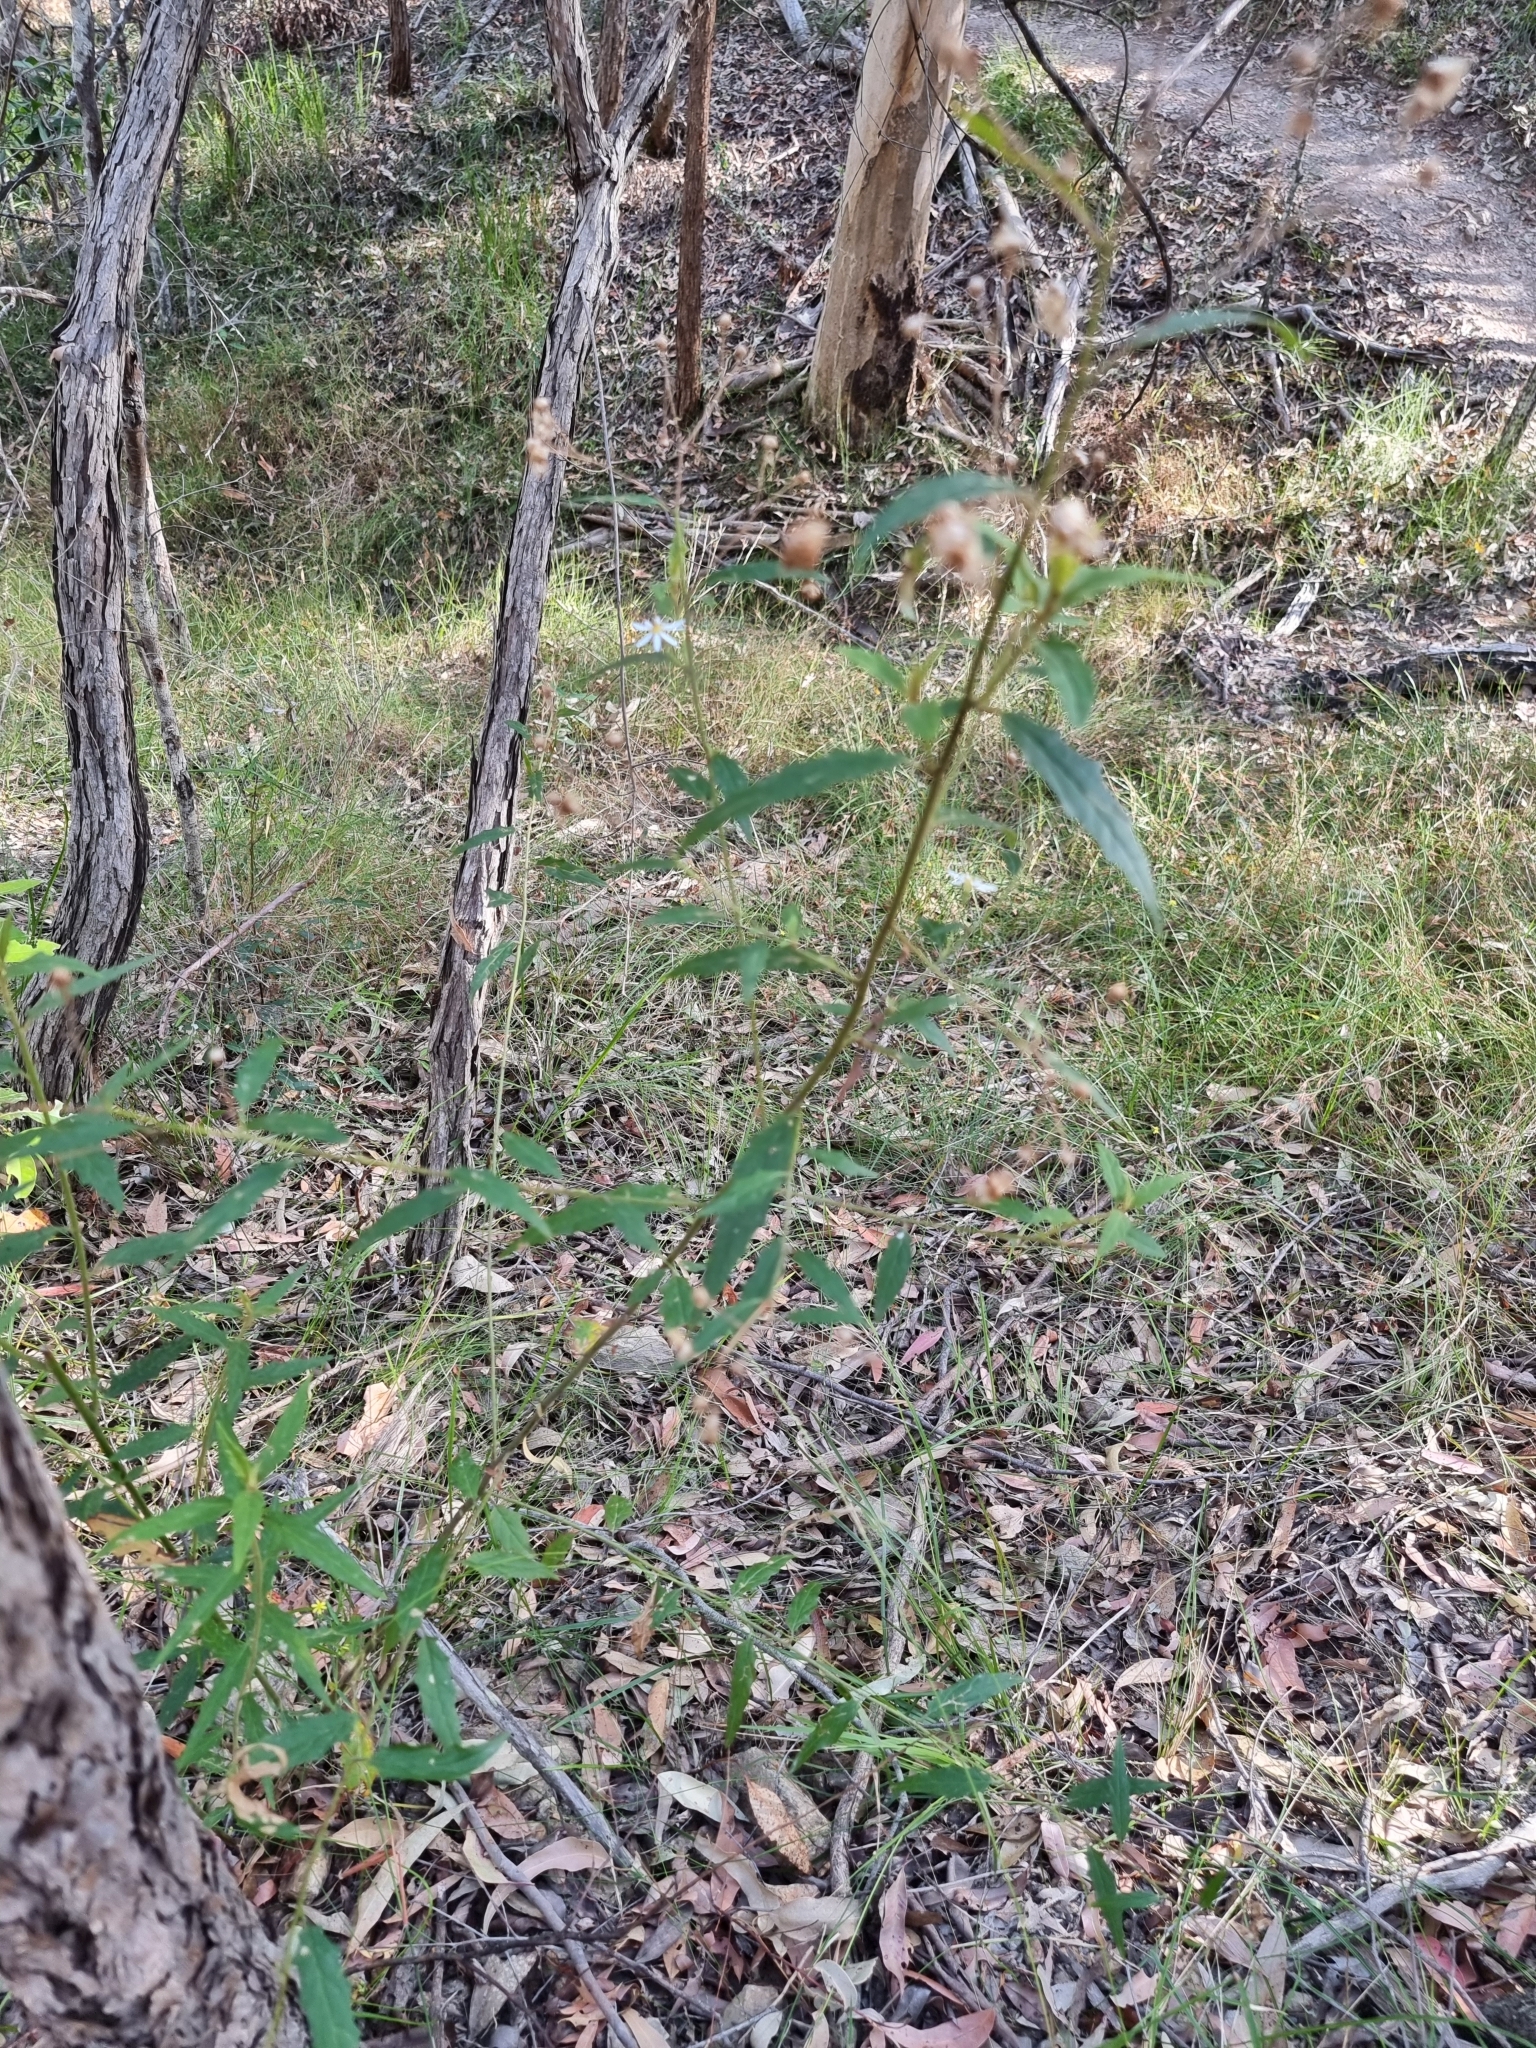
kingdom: Plantae
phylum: Tracheophyta
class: Magnoliopsida
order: Asterales
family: Asteraceae
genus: Olearia
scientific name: Olearia nernstii
